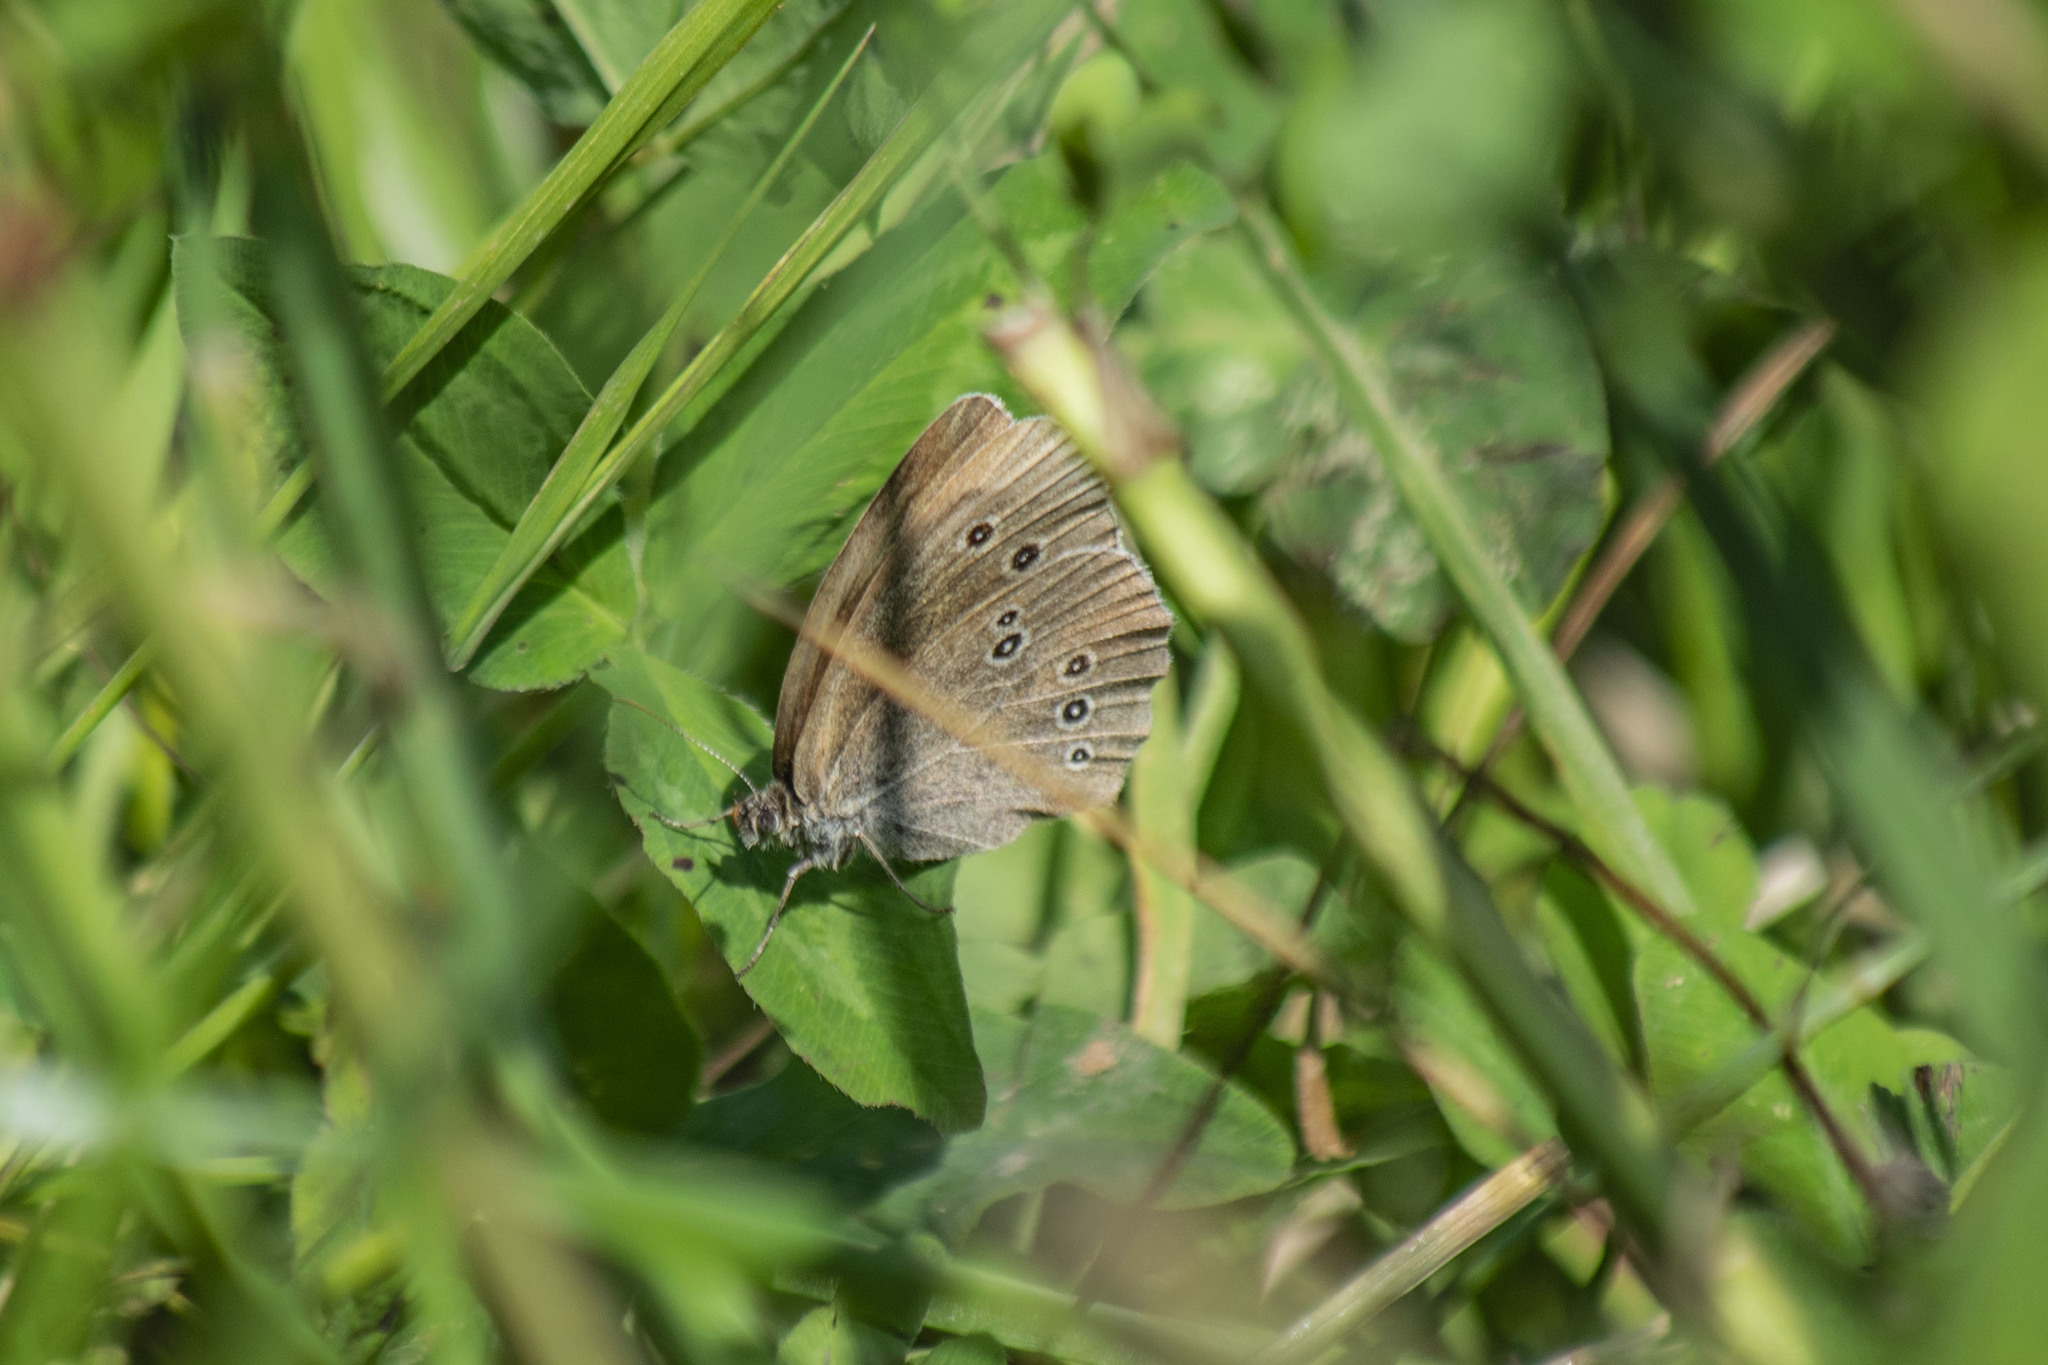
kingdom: Animalia
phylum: Arthropoda
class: Insecta
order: Lepidoptera
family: Nymphalidae
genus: Aphantopus
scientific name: Aphantopus hyperantus
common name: Ringlet
